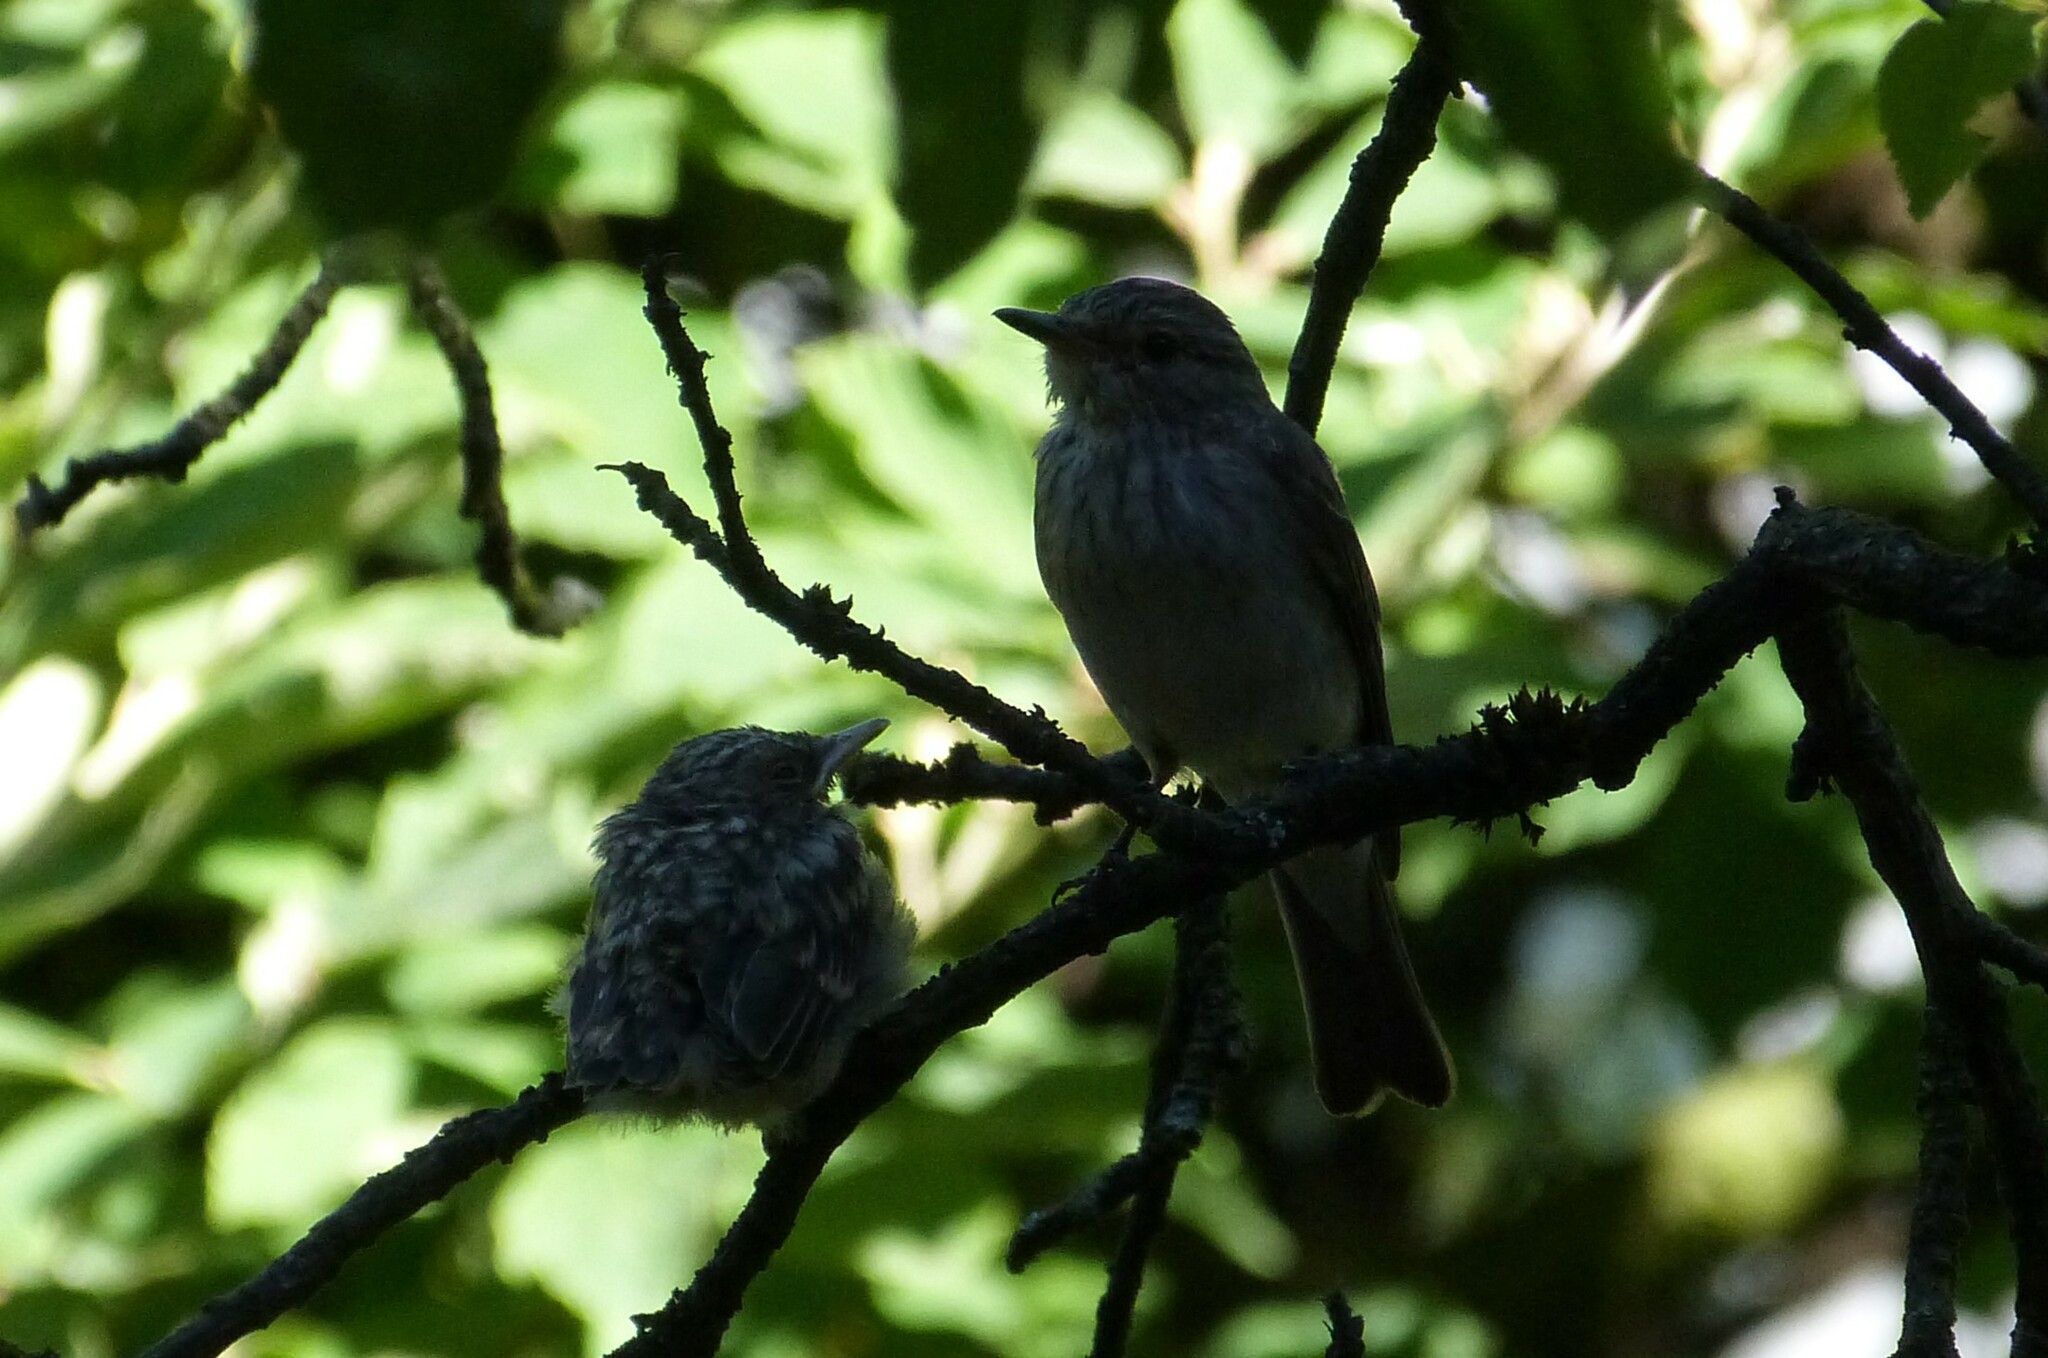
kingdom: Animalia
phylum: Chordata
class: Aves
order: Passeriformes
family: Muscicapidae
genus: Muscicapa
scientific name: Muscicapa striata
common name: Spotted flycatcher
